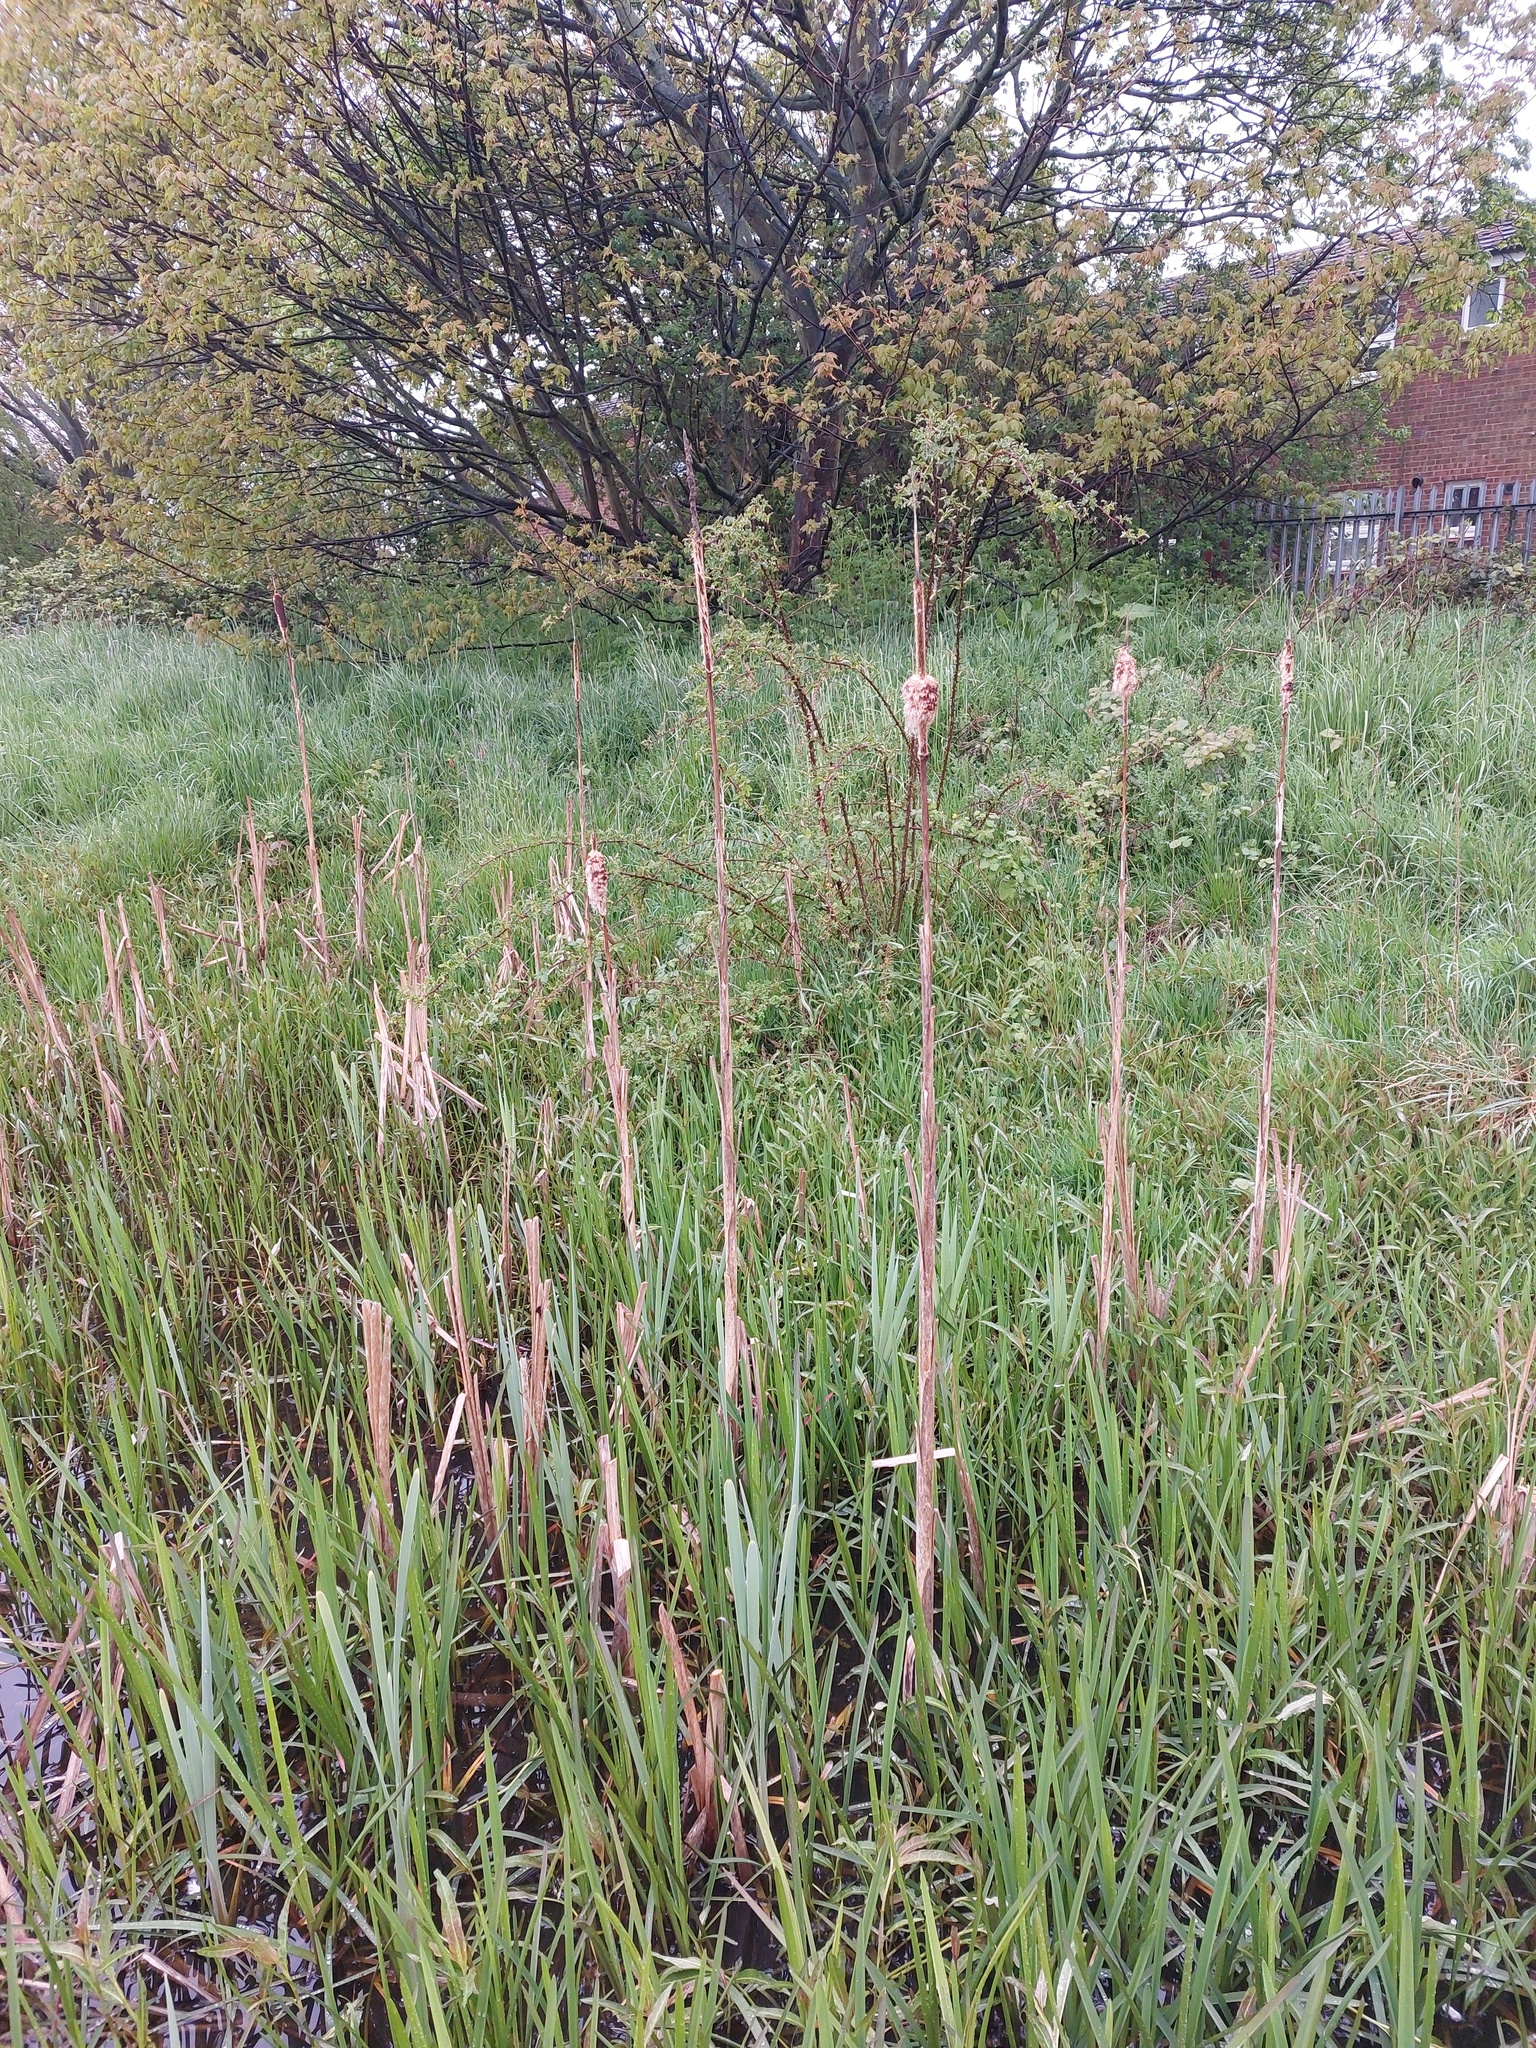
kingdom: Plantae
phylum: Tracheophyta
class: Liliopsida
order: Poales
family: Typhaceae
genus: Typha
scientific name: Typha latifolia
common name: Broadleaf cattail
